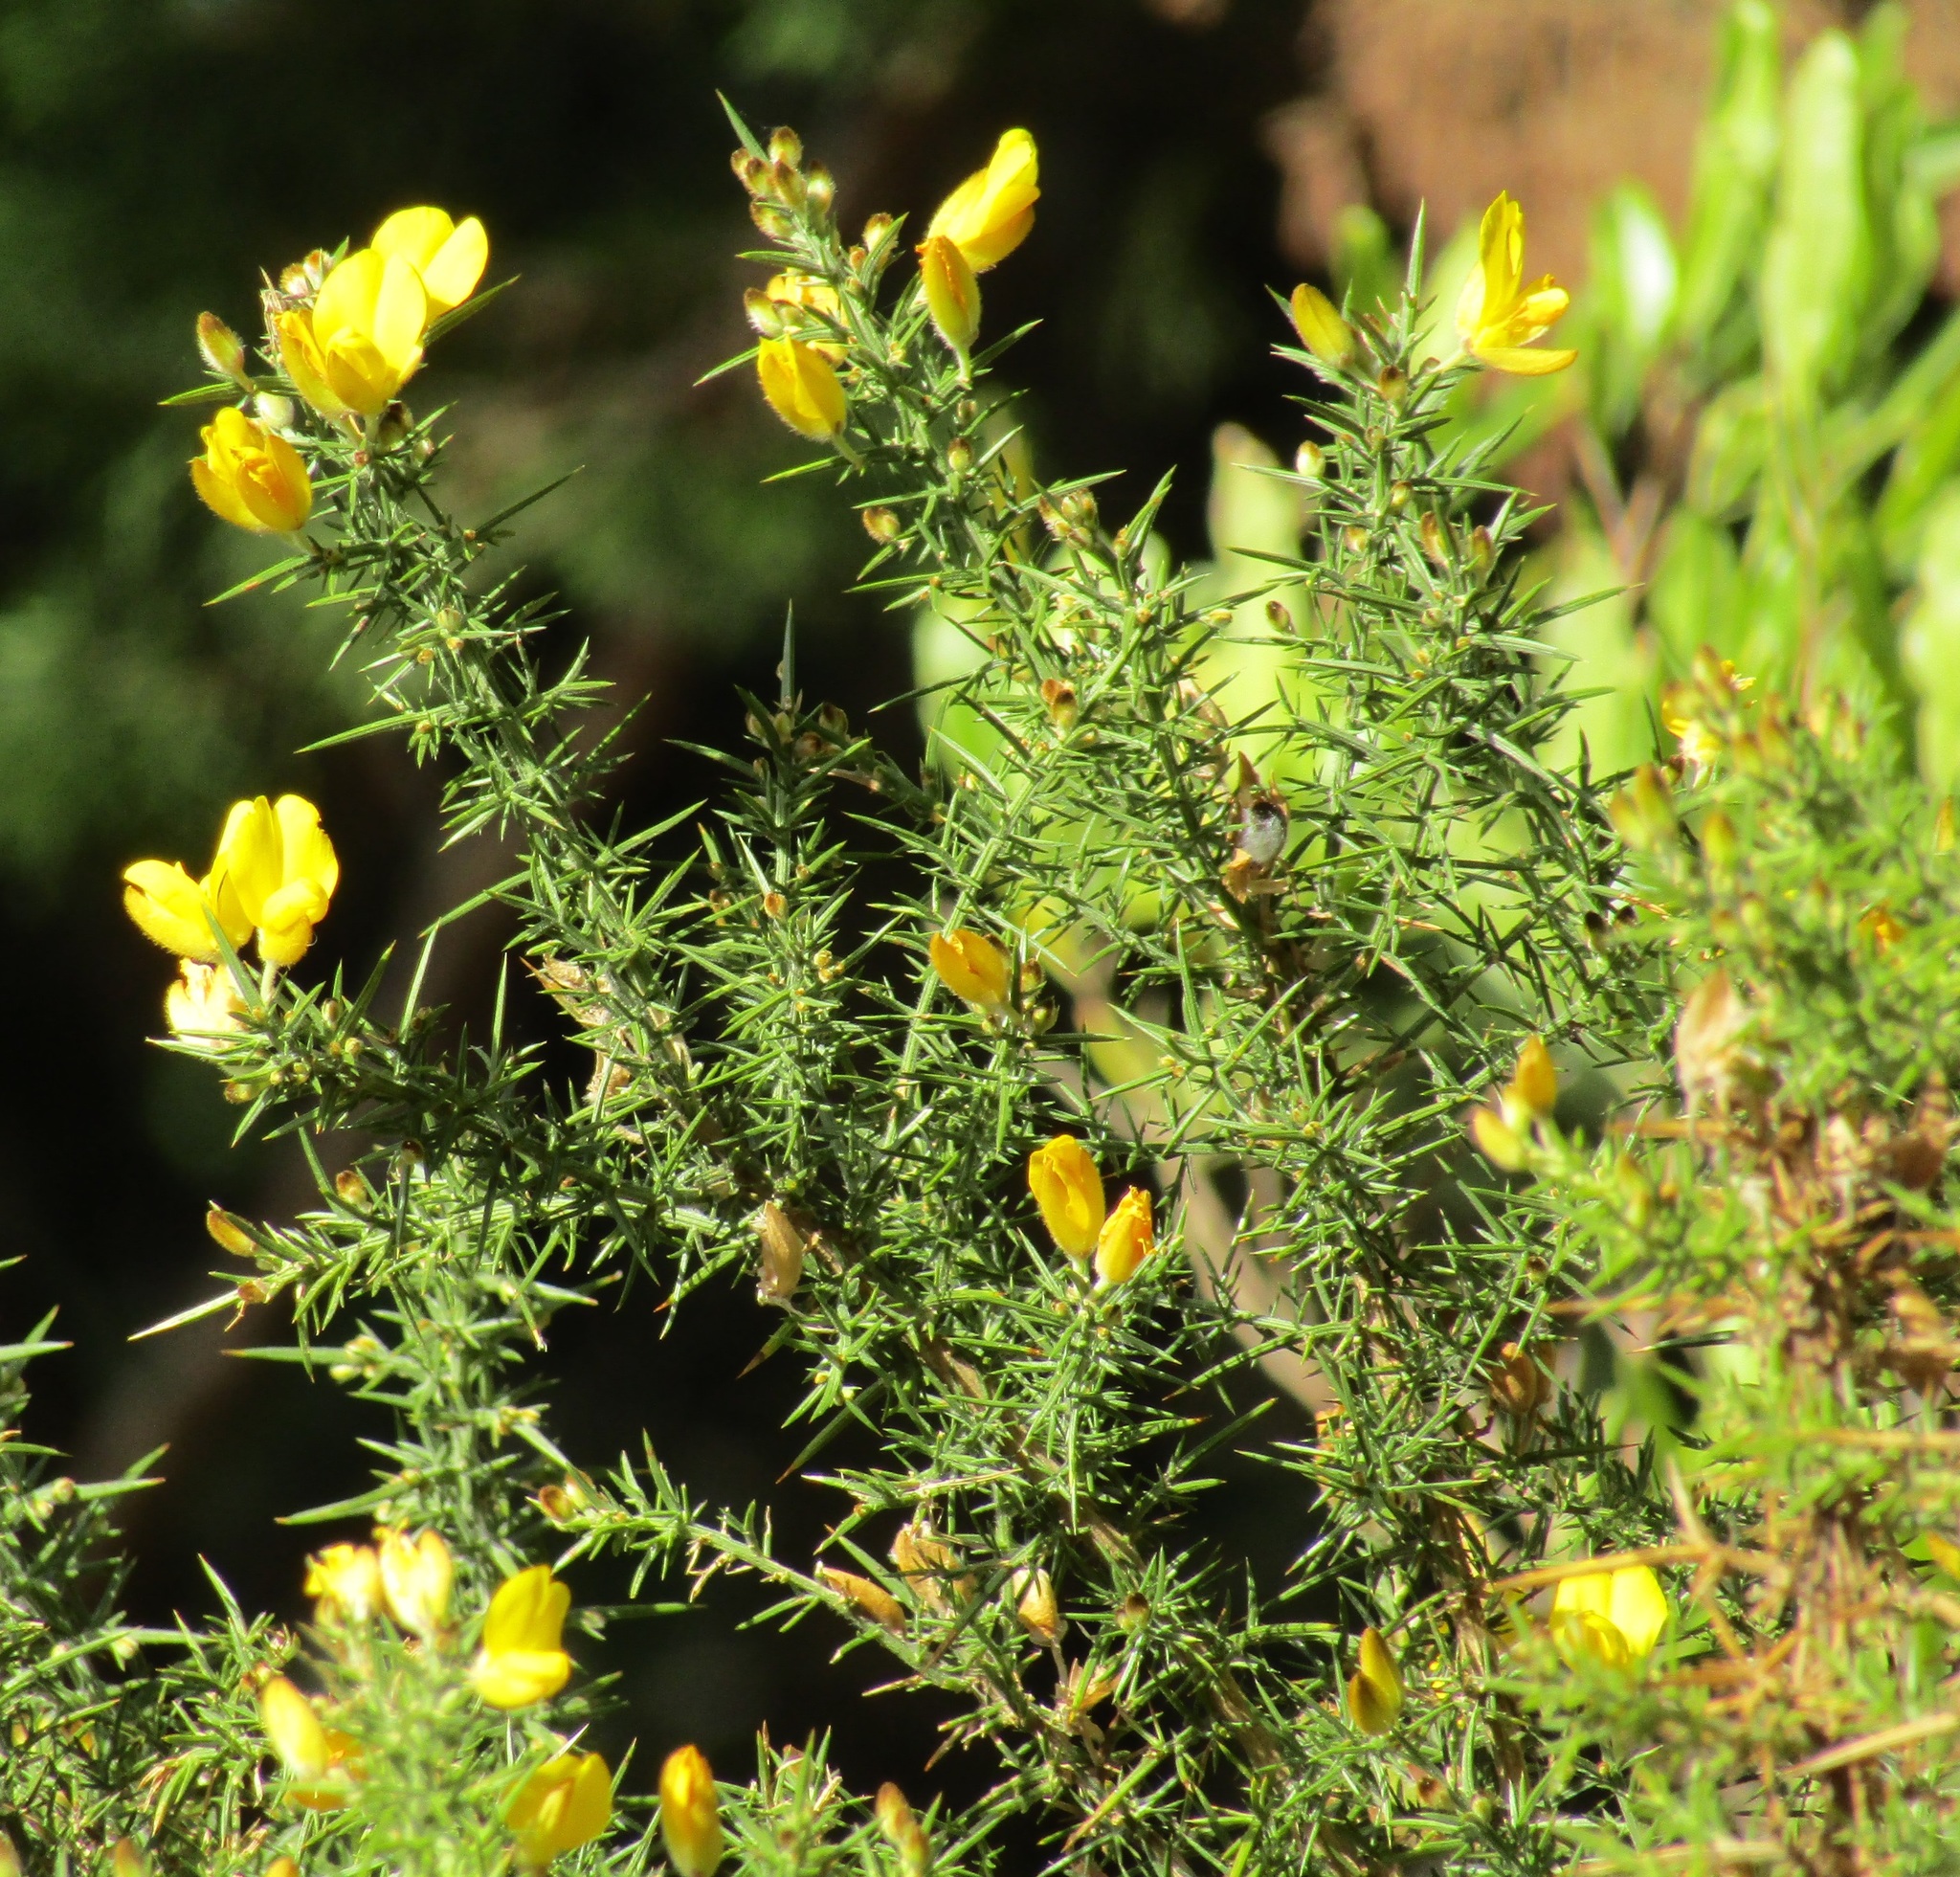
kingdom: Plantae
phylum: Tracheophyta
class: Magnoliopsida
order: Fabales
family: Fabaceae
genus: Ulex
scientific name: Ulex europaeus
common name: Common gorse
